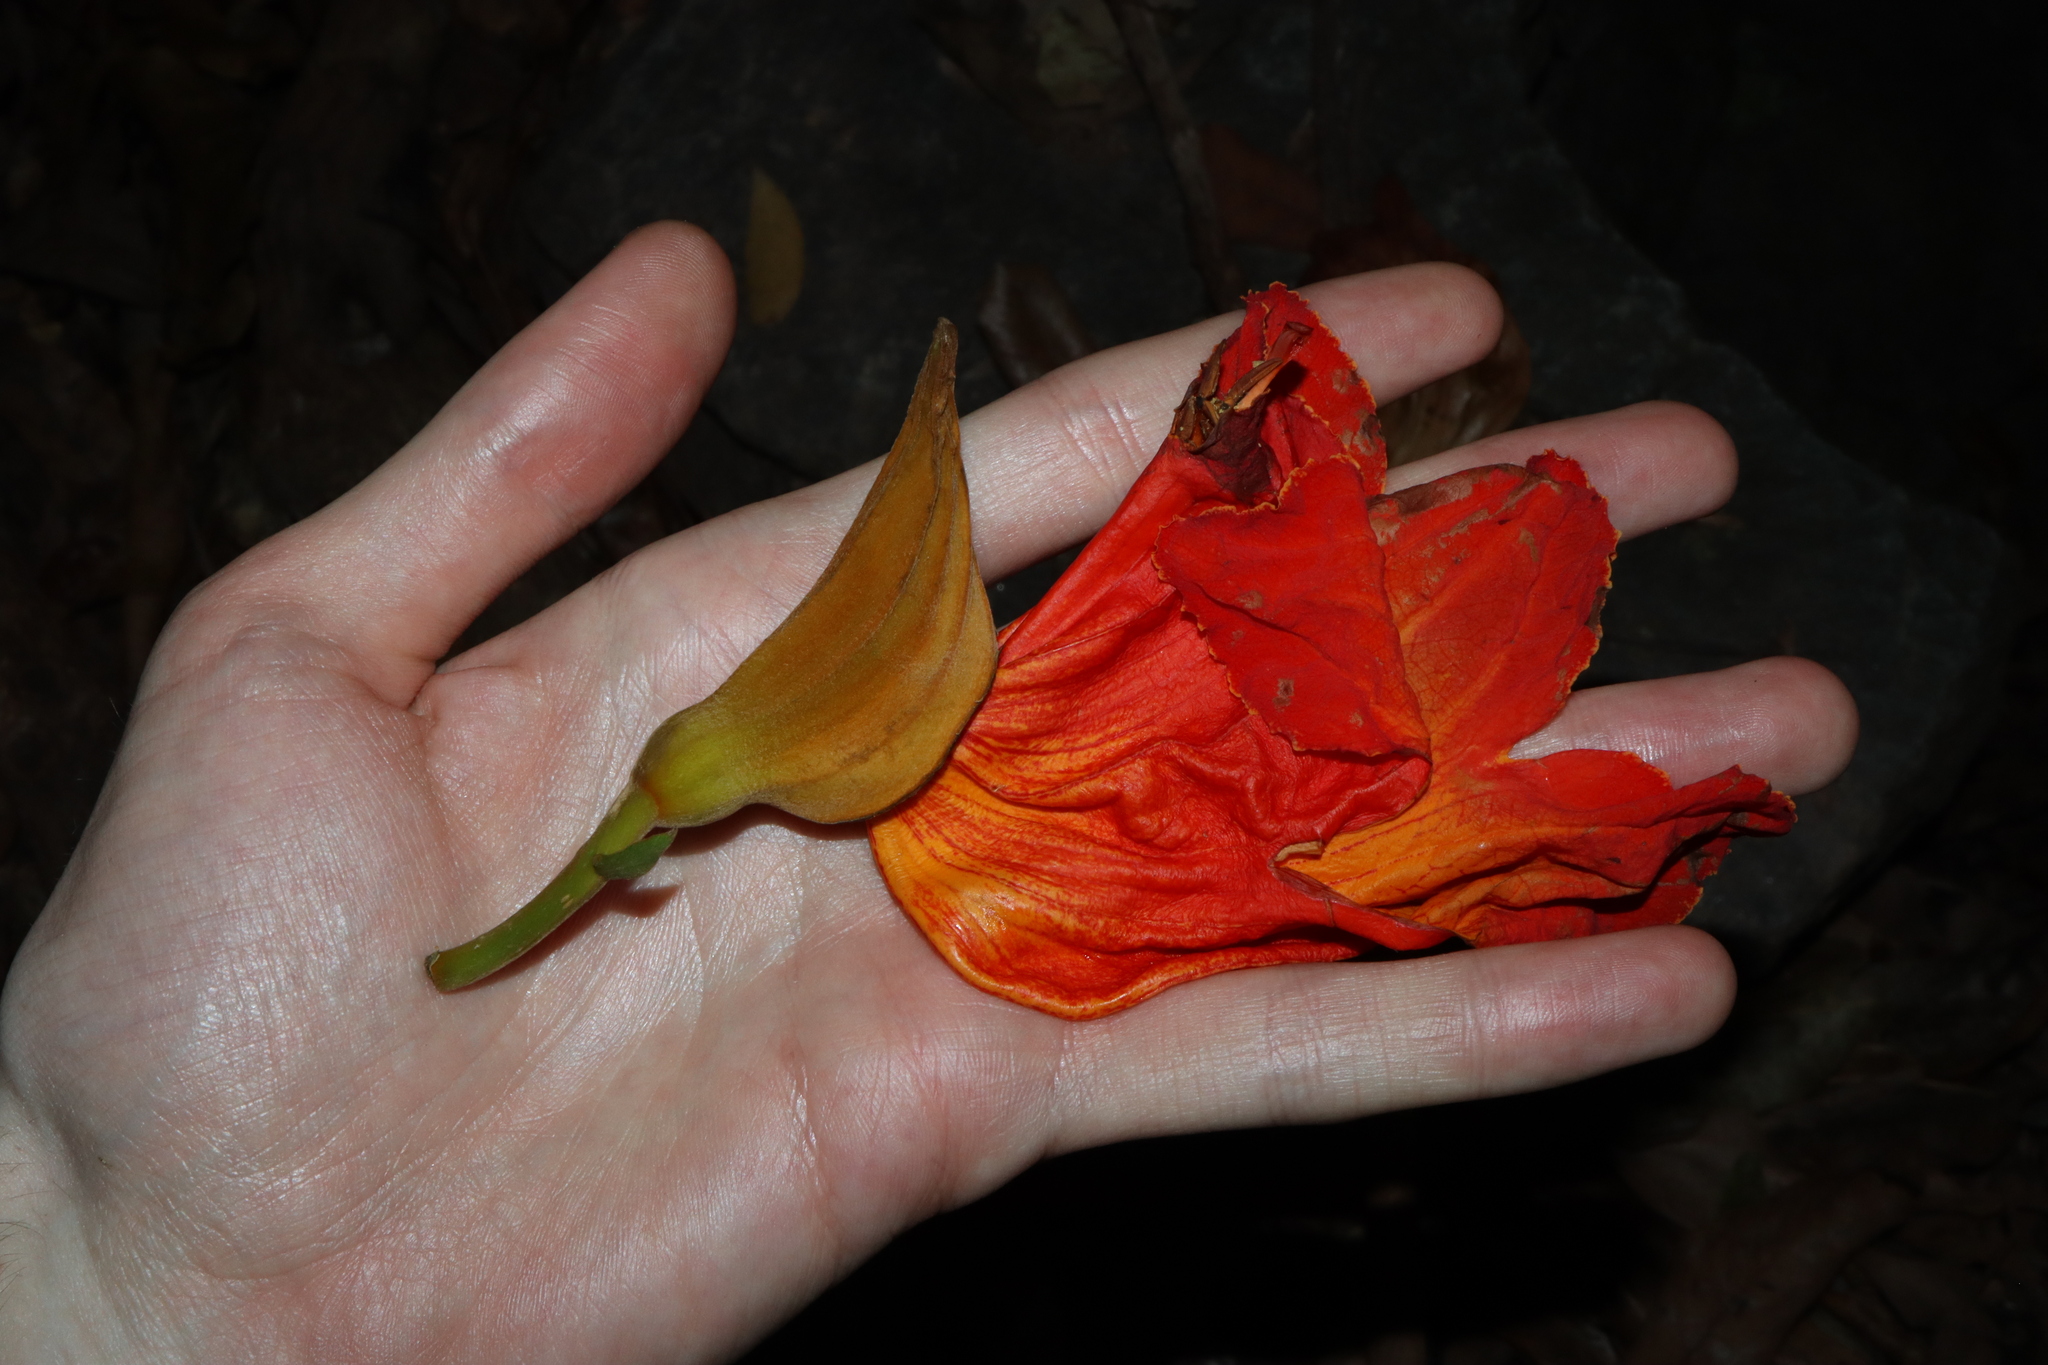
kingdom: Plantae
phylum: Tracheophyta
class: Magnoliopsida
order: Lamiales
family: Bignoniaceae
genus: Spathodea
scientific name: Spathodea campanulata
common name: African tuliptree
